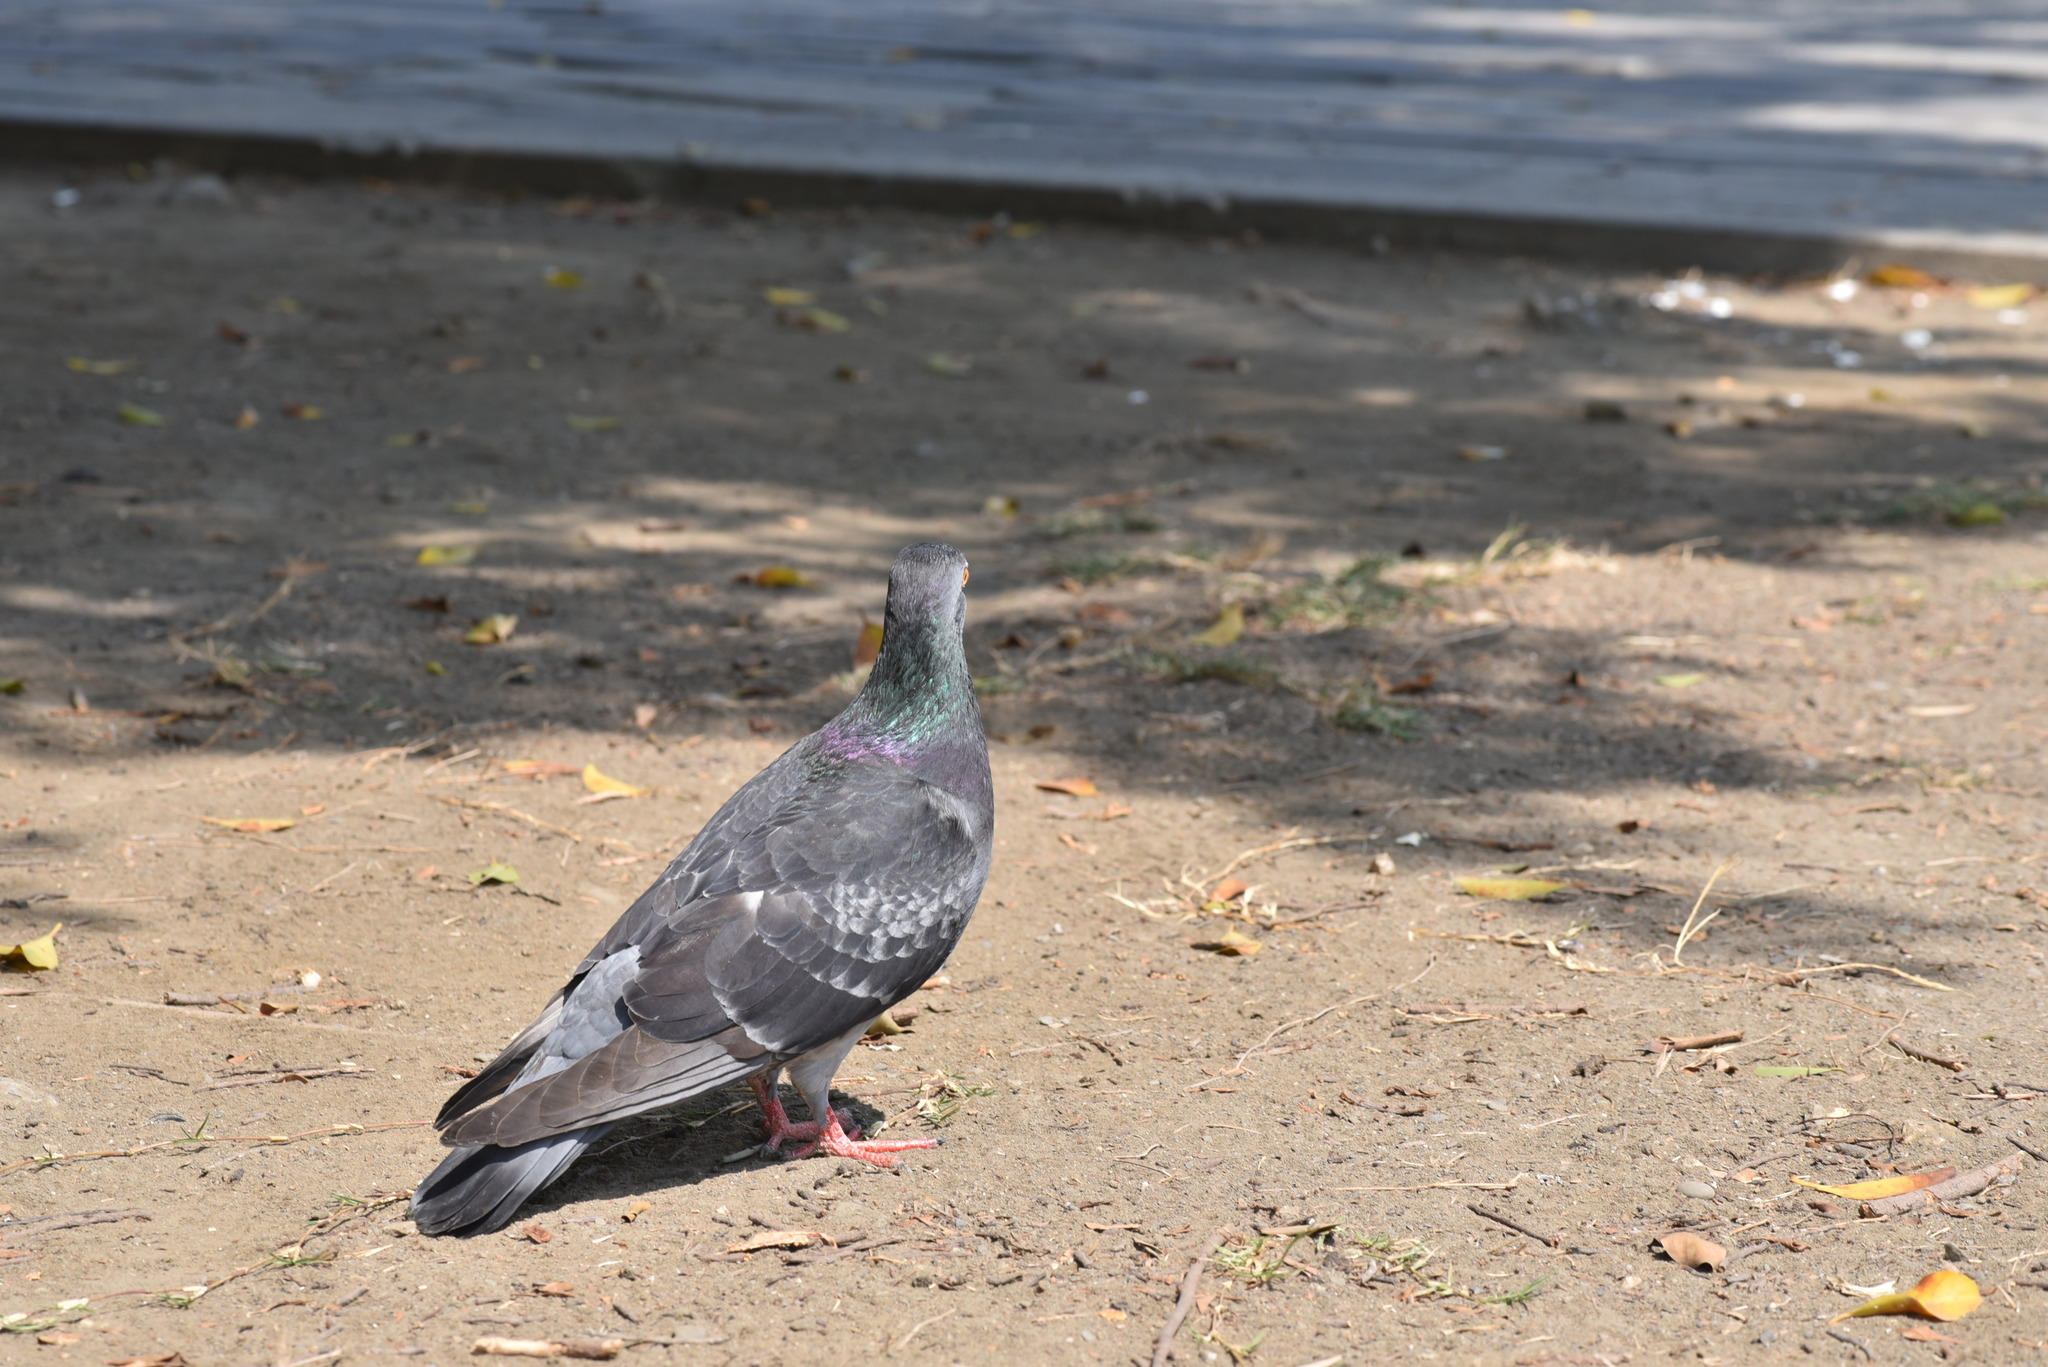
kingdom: Animalia
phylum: Chordata
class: Aves
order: Columbiformes
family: Columbidae
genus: Columba
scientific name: Columba livia
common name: Rock pigeon
